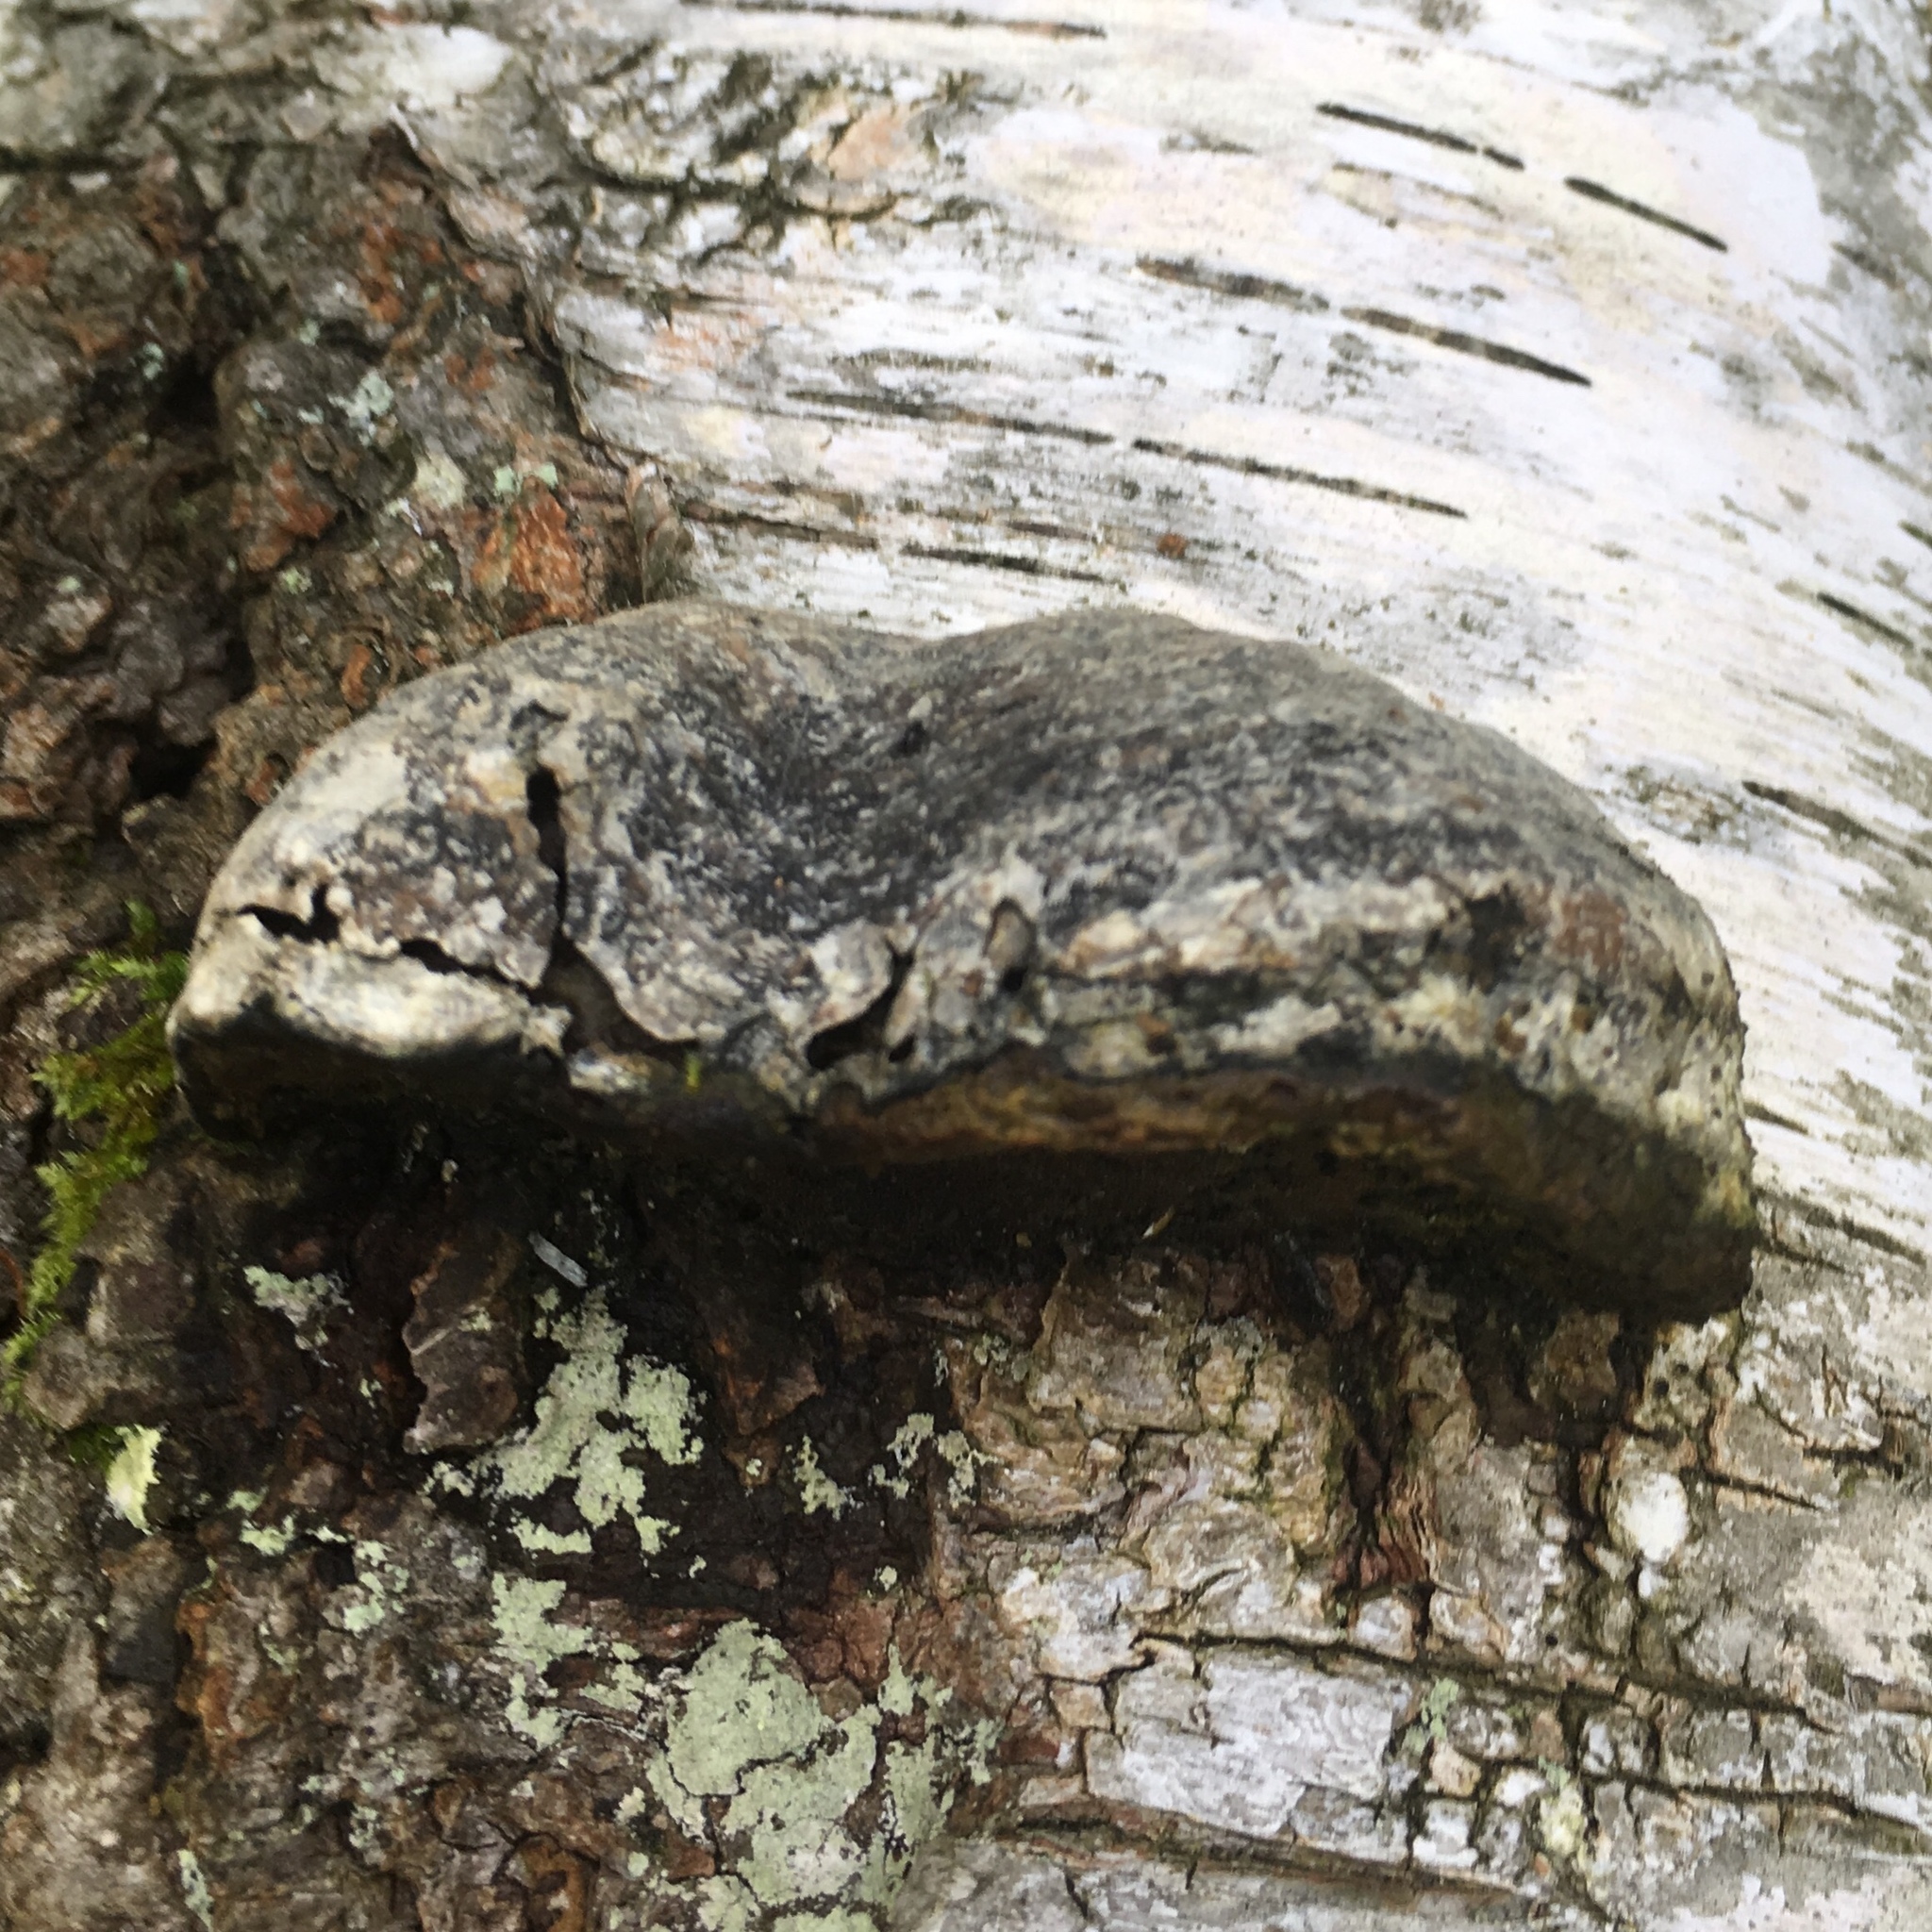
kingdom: Fungi
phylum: Basidiomycota
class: Agaricomycetes
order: Polyporales
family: Fomitopsidaceae
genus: Fomitopsis
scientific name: Fomitopsis betulina
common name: Birch polypore
